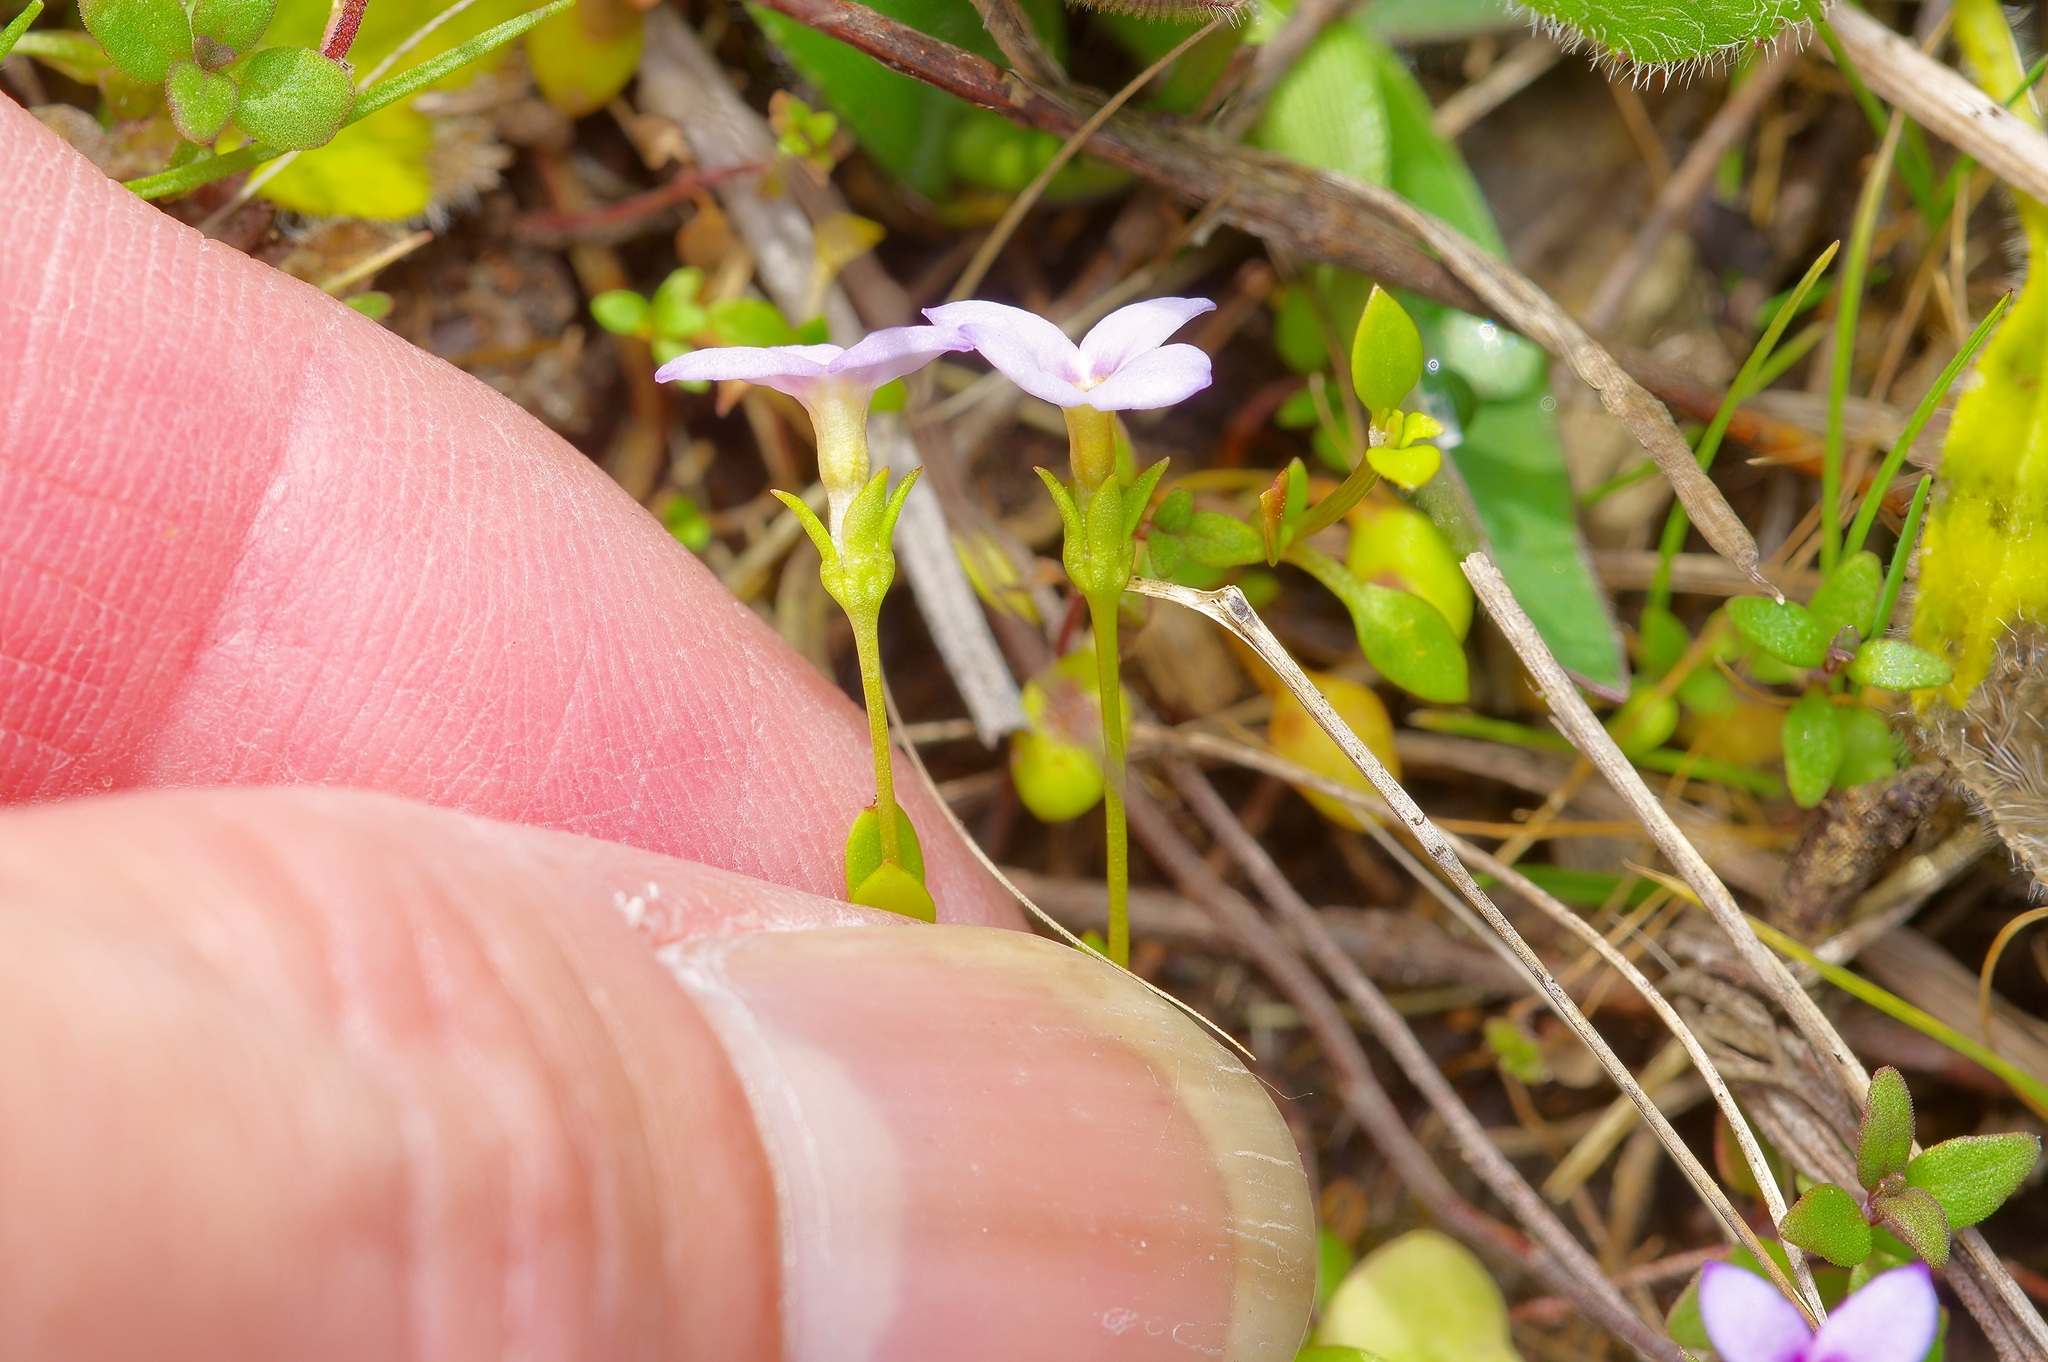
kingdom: Plantae
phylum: Tracheophyta
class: Magnoliopsida
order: Gentianales
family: Rubiaceae
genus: Houstonia
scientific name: Houstonia pusilla
